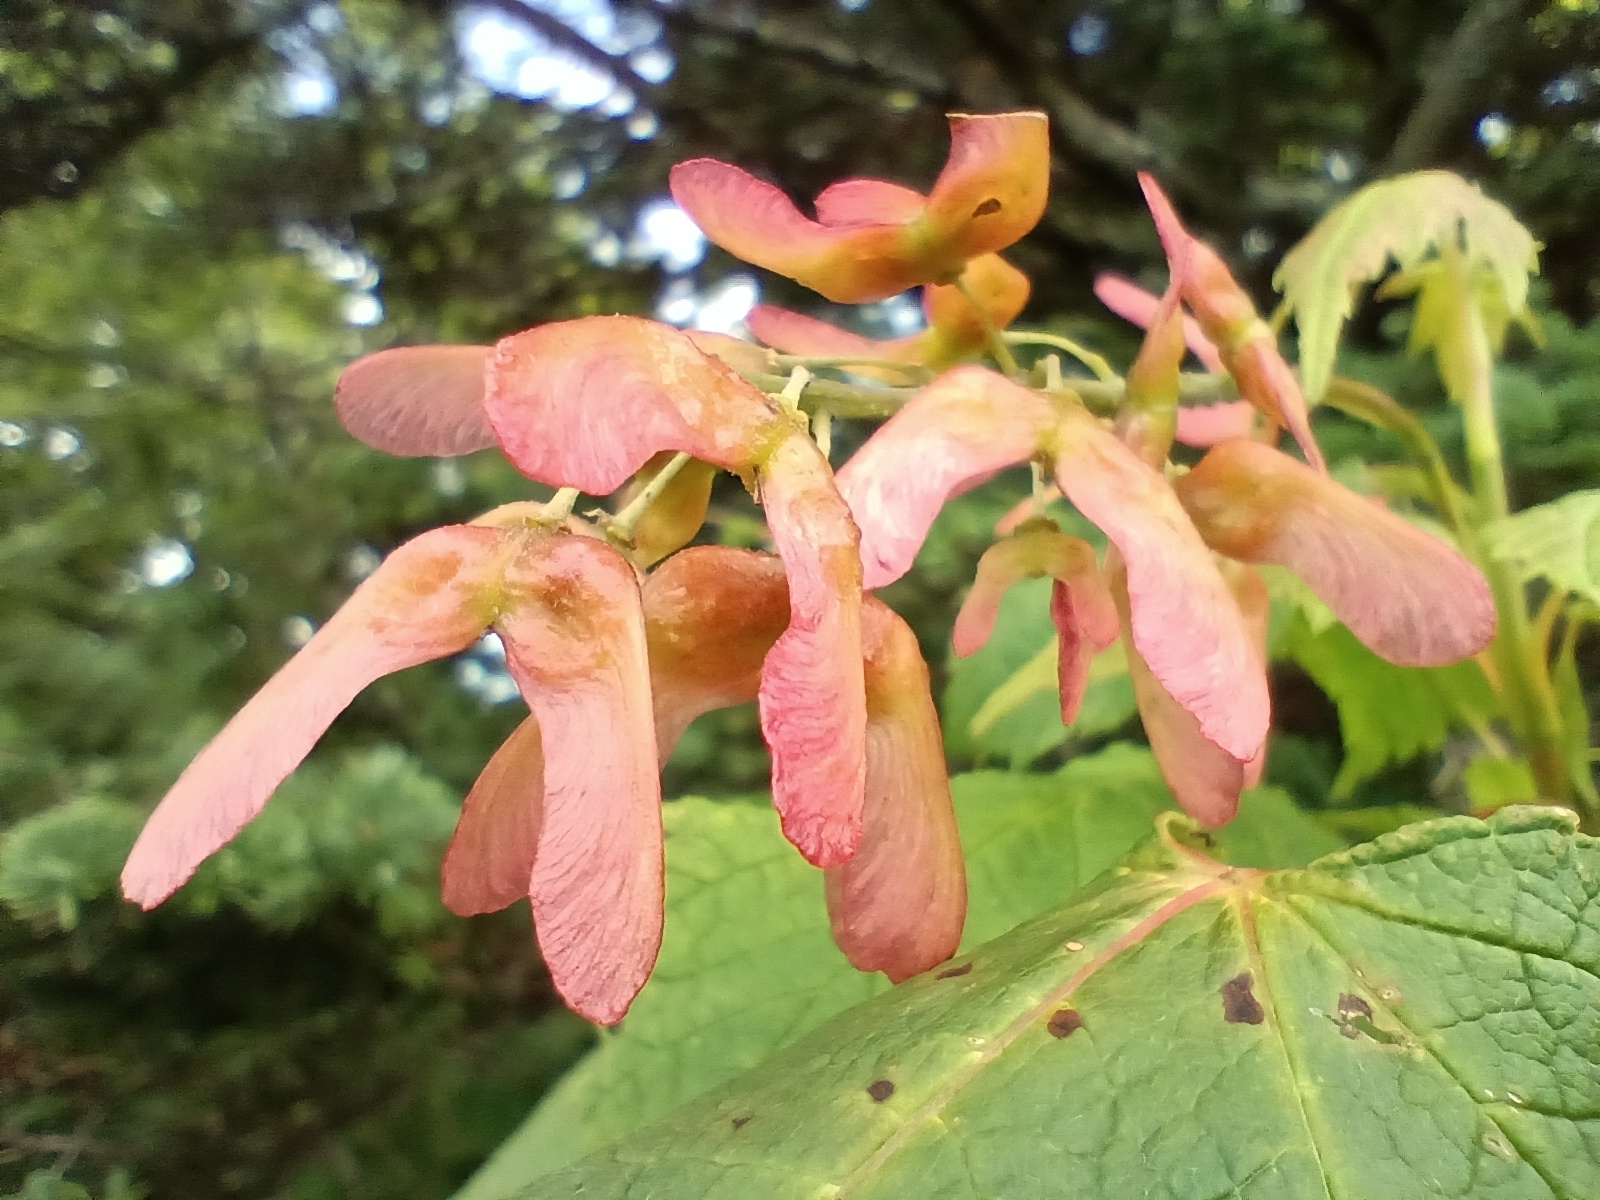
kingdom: Plantae
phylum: Tracheophyta
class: Magnoliopsida
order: Sapindales
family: Sapindaceae
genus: Acer
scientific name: Acer spicatum
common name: Mountain maple
